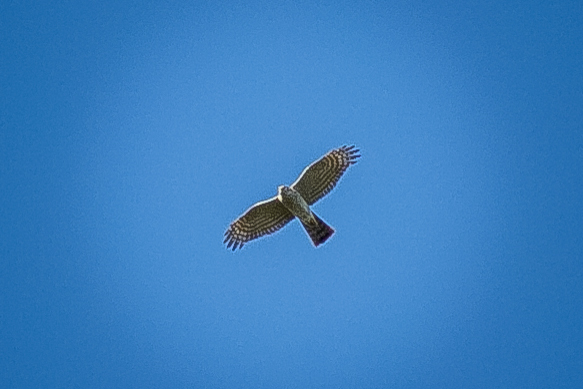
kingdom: Animalia
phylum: Chordata
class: Aves
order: Accipitriformes
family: Accipitridae
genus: Accipiter
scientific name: Accipiter nisus
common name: Eurasian sparrowhawk
